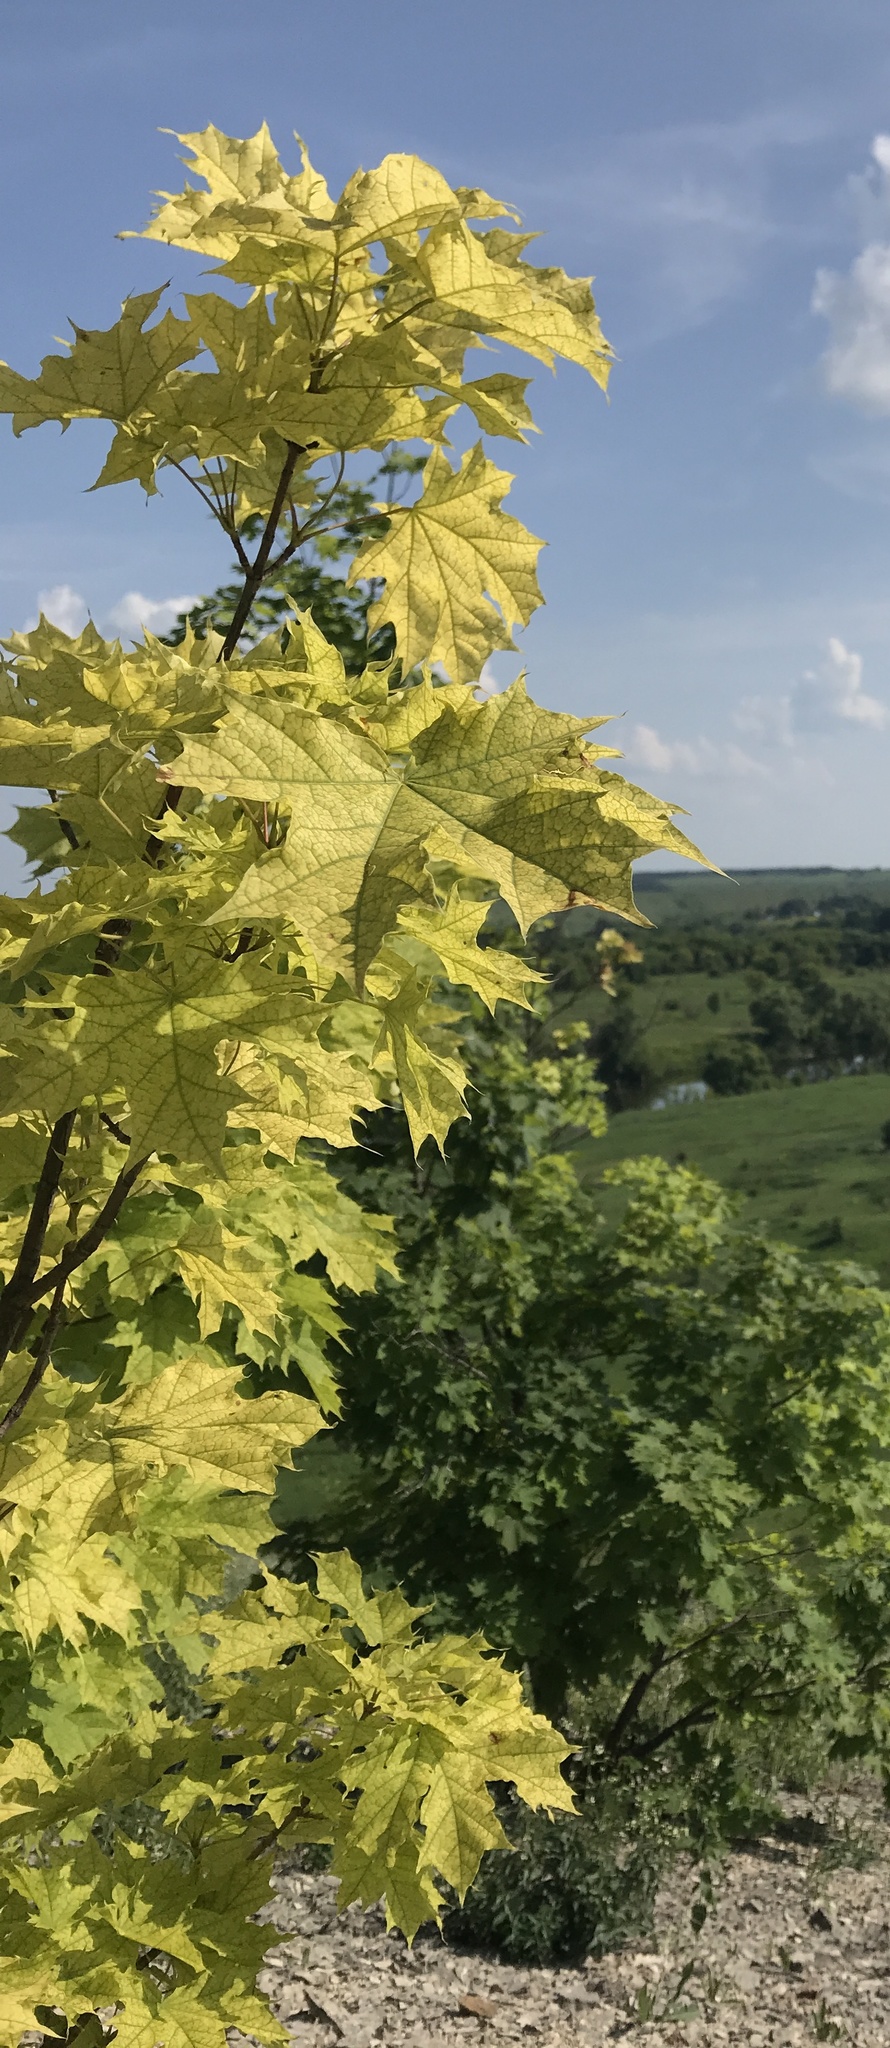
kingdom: Plantae
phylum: Tracheophyta
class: Magnoliopsida
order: Sapindales
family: Sapindaceae
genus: Acer
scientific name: Acer platanoides
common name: Norway maple
